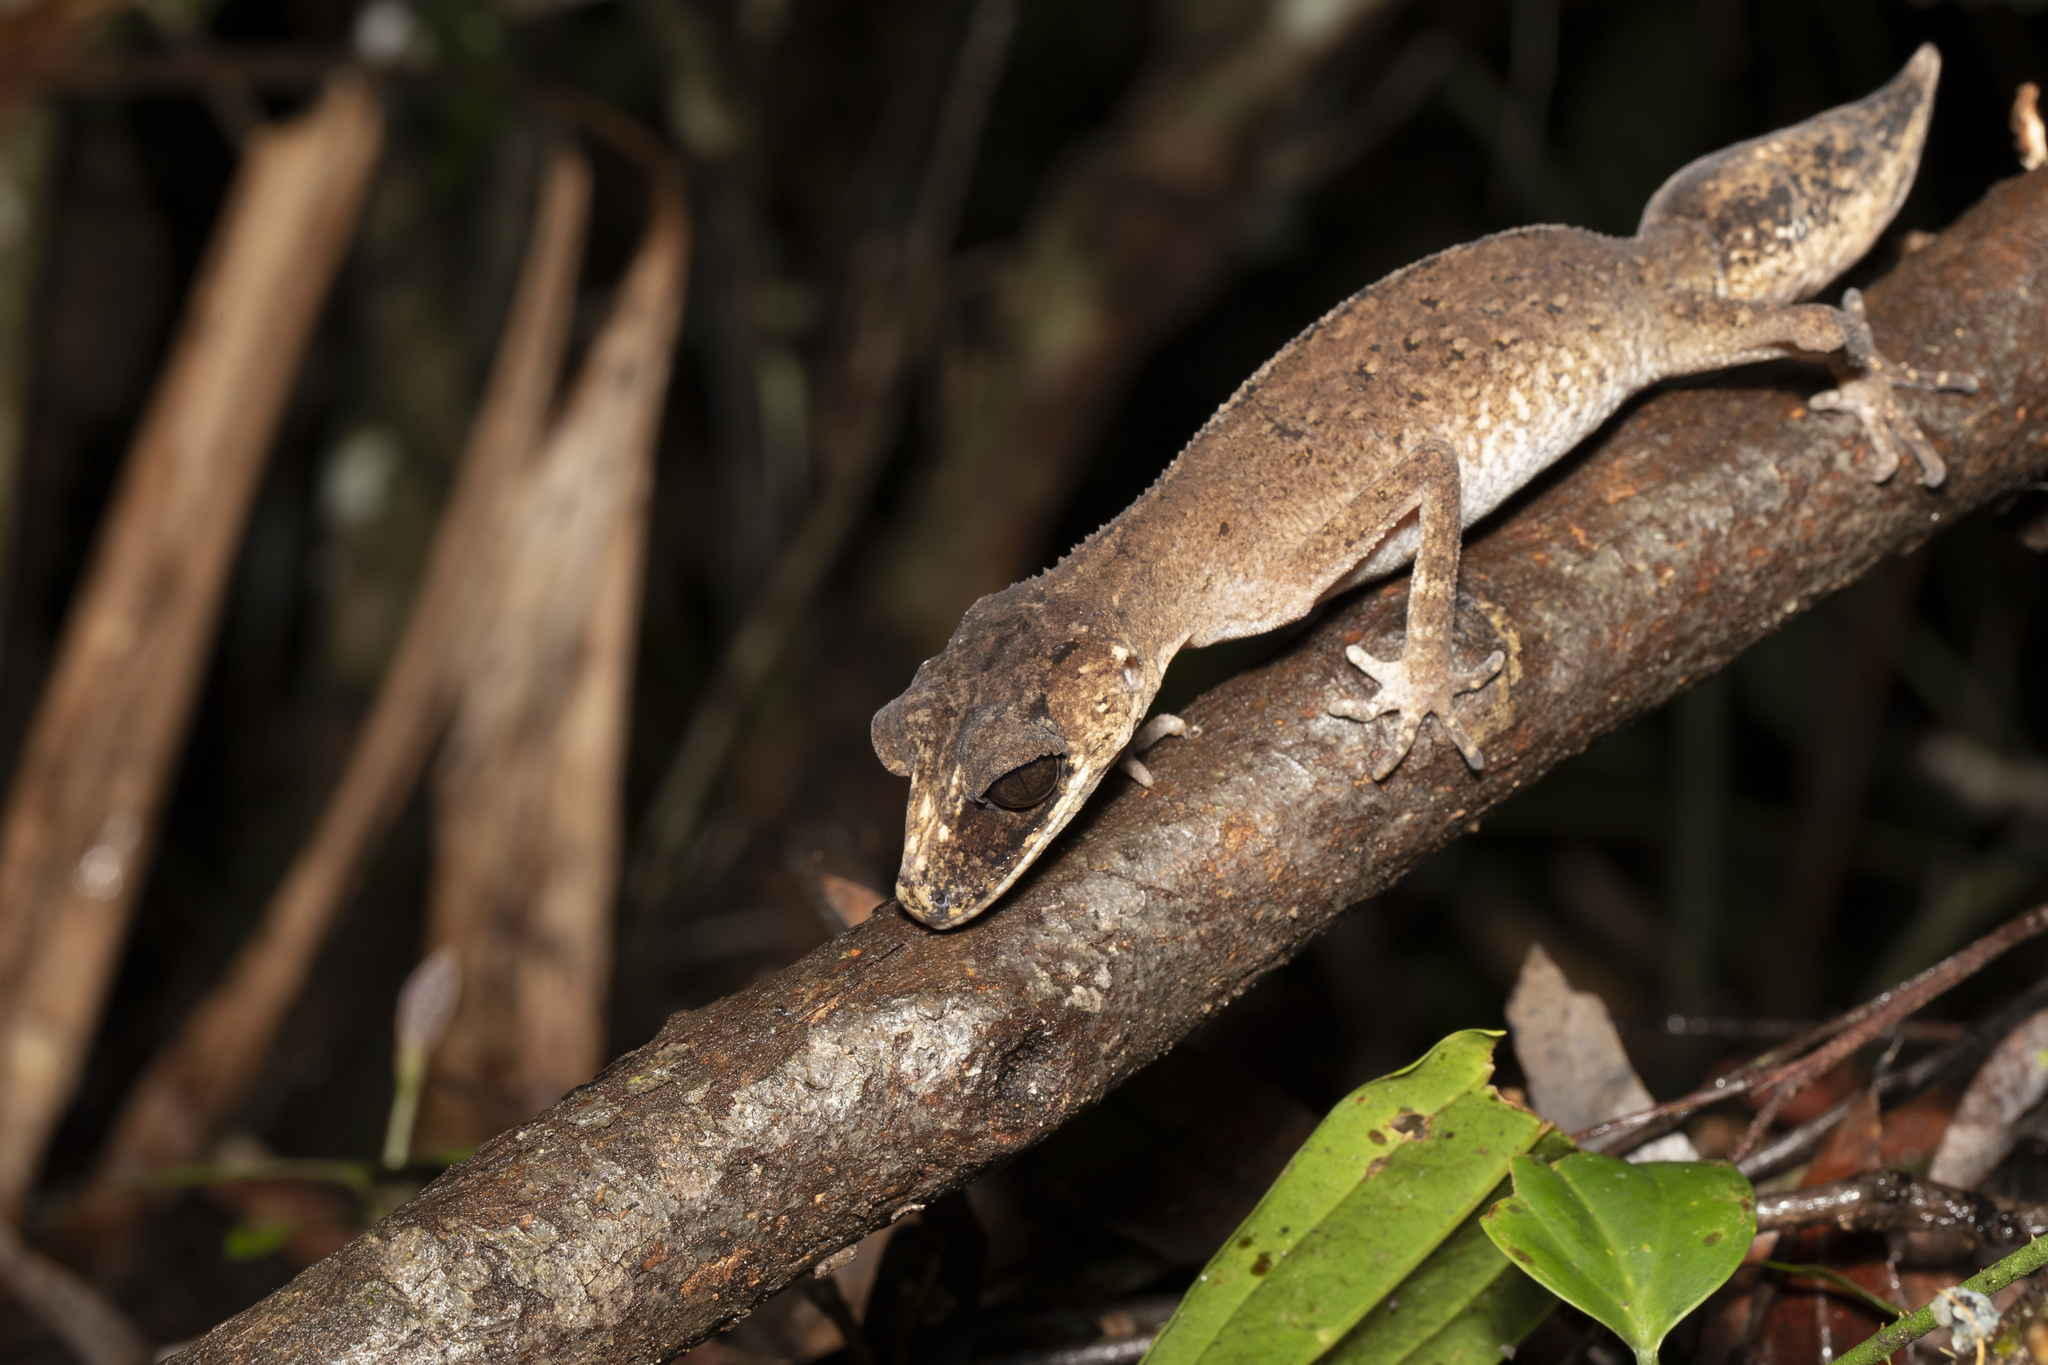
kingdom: Animalia
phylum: Chordata
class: Squamata
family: Carphodactylidae
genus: Carphodactylus
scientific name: Carphodactylus laevis
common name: Chameleon gecko
